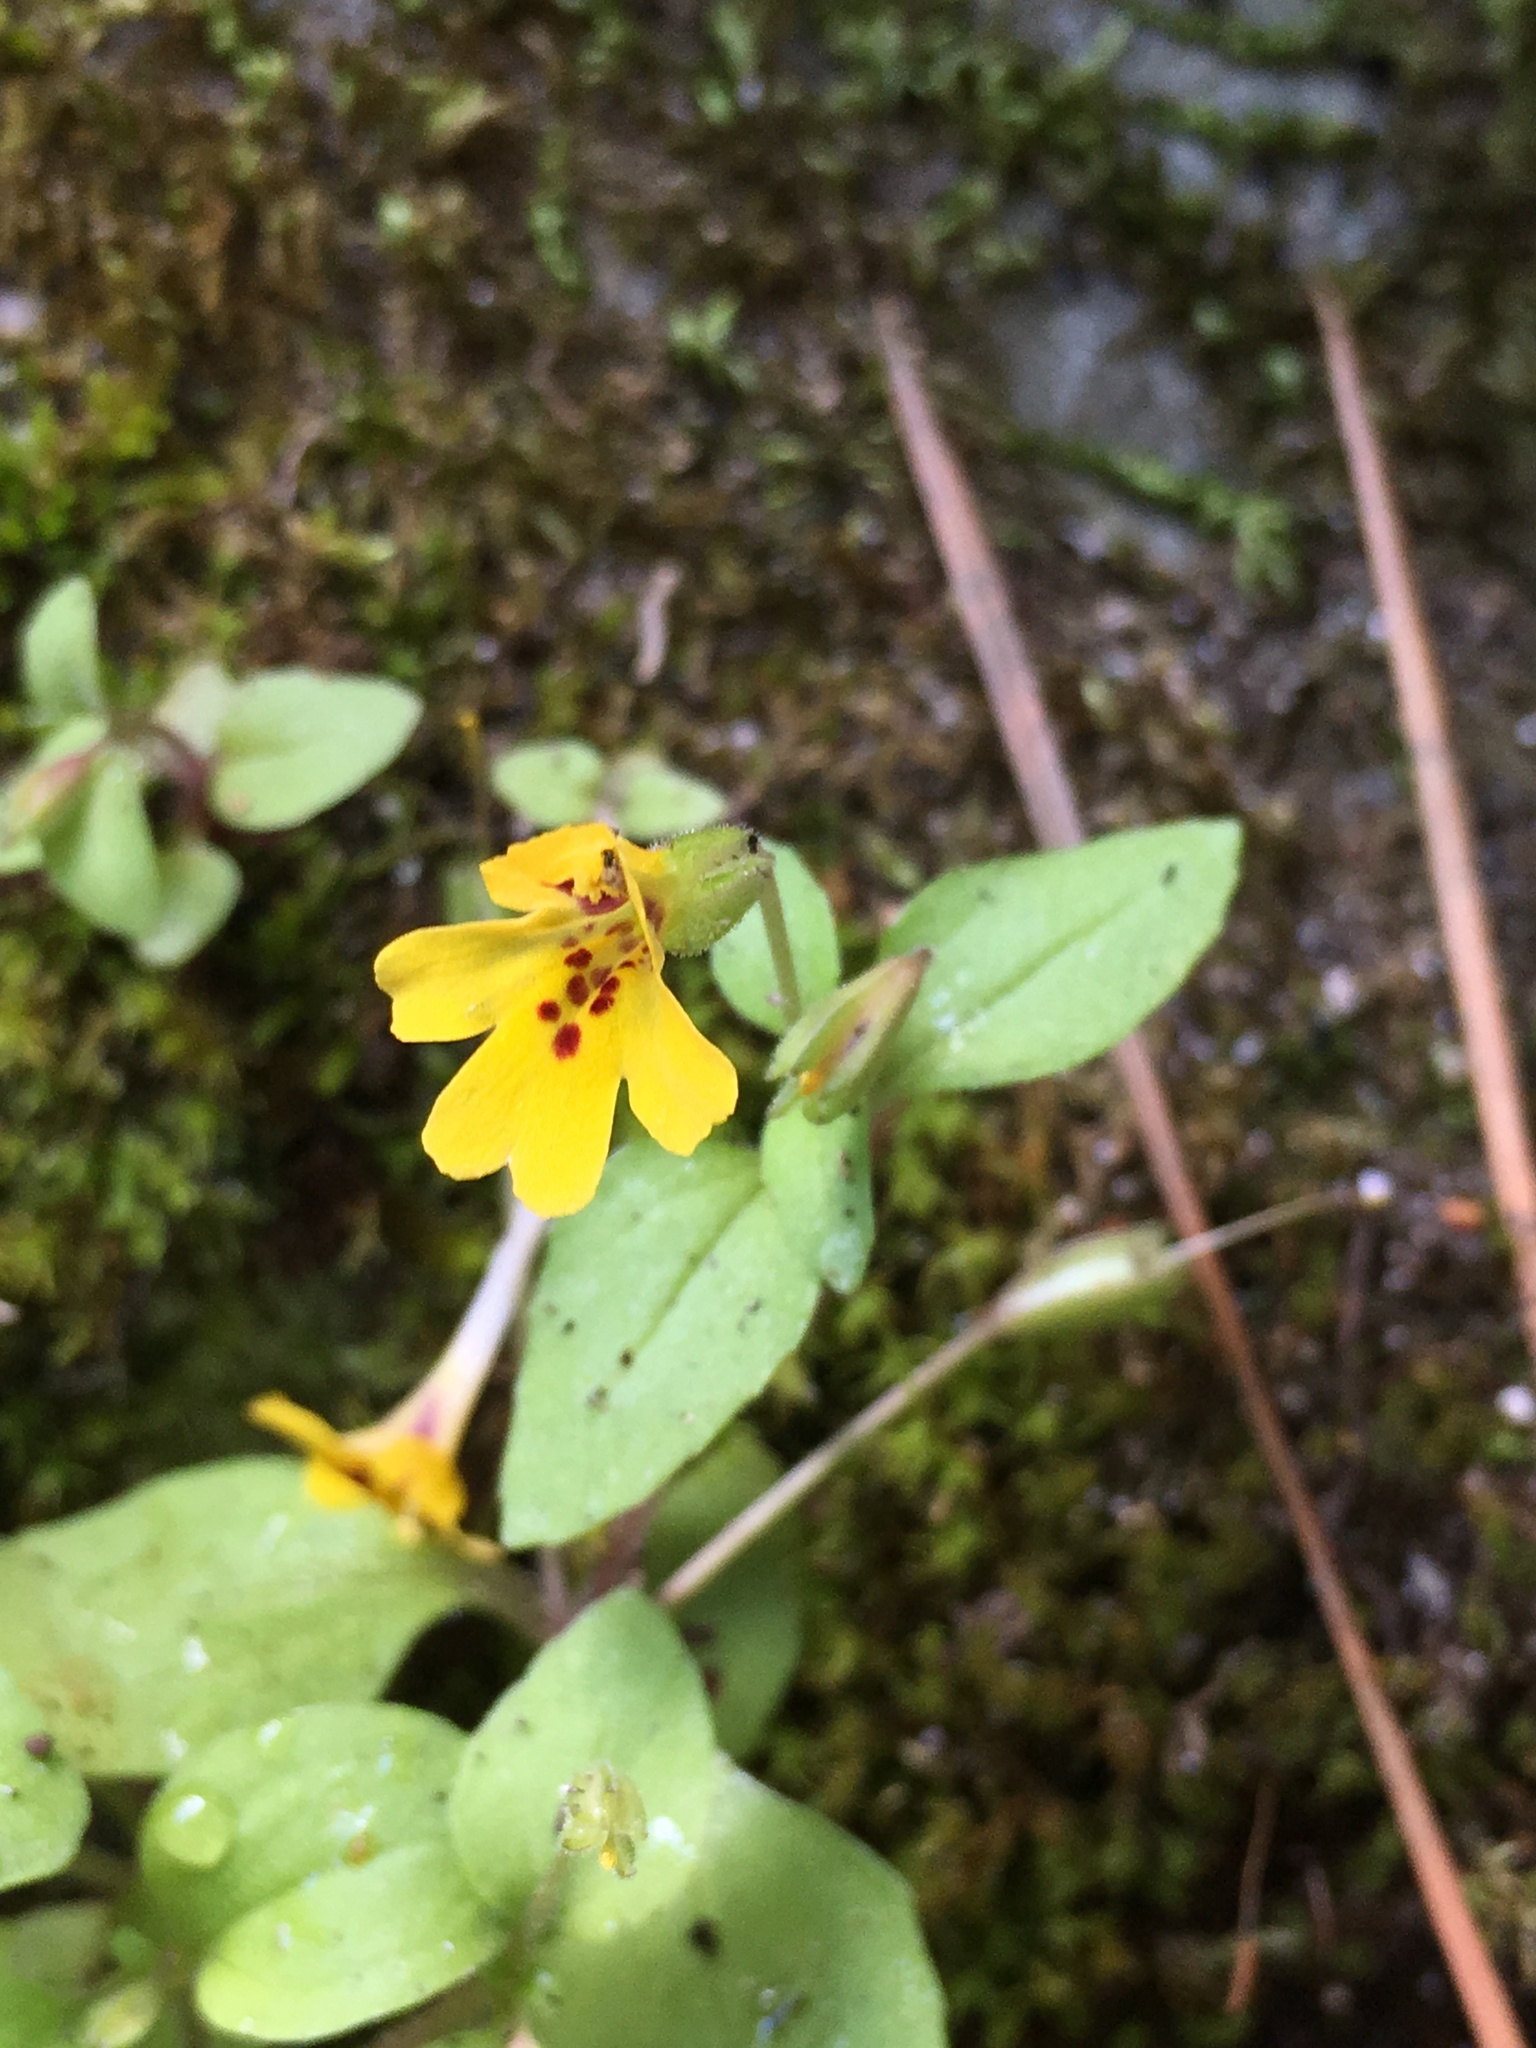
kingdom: Plantae
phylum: Tracheophyta
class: Magnoliopsida
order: Lamiales
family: Phrymaceae
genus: Erythranthe
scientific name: Erythranthe alsinoides
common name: Chickweed monkeyflower
